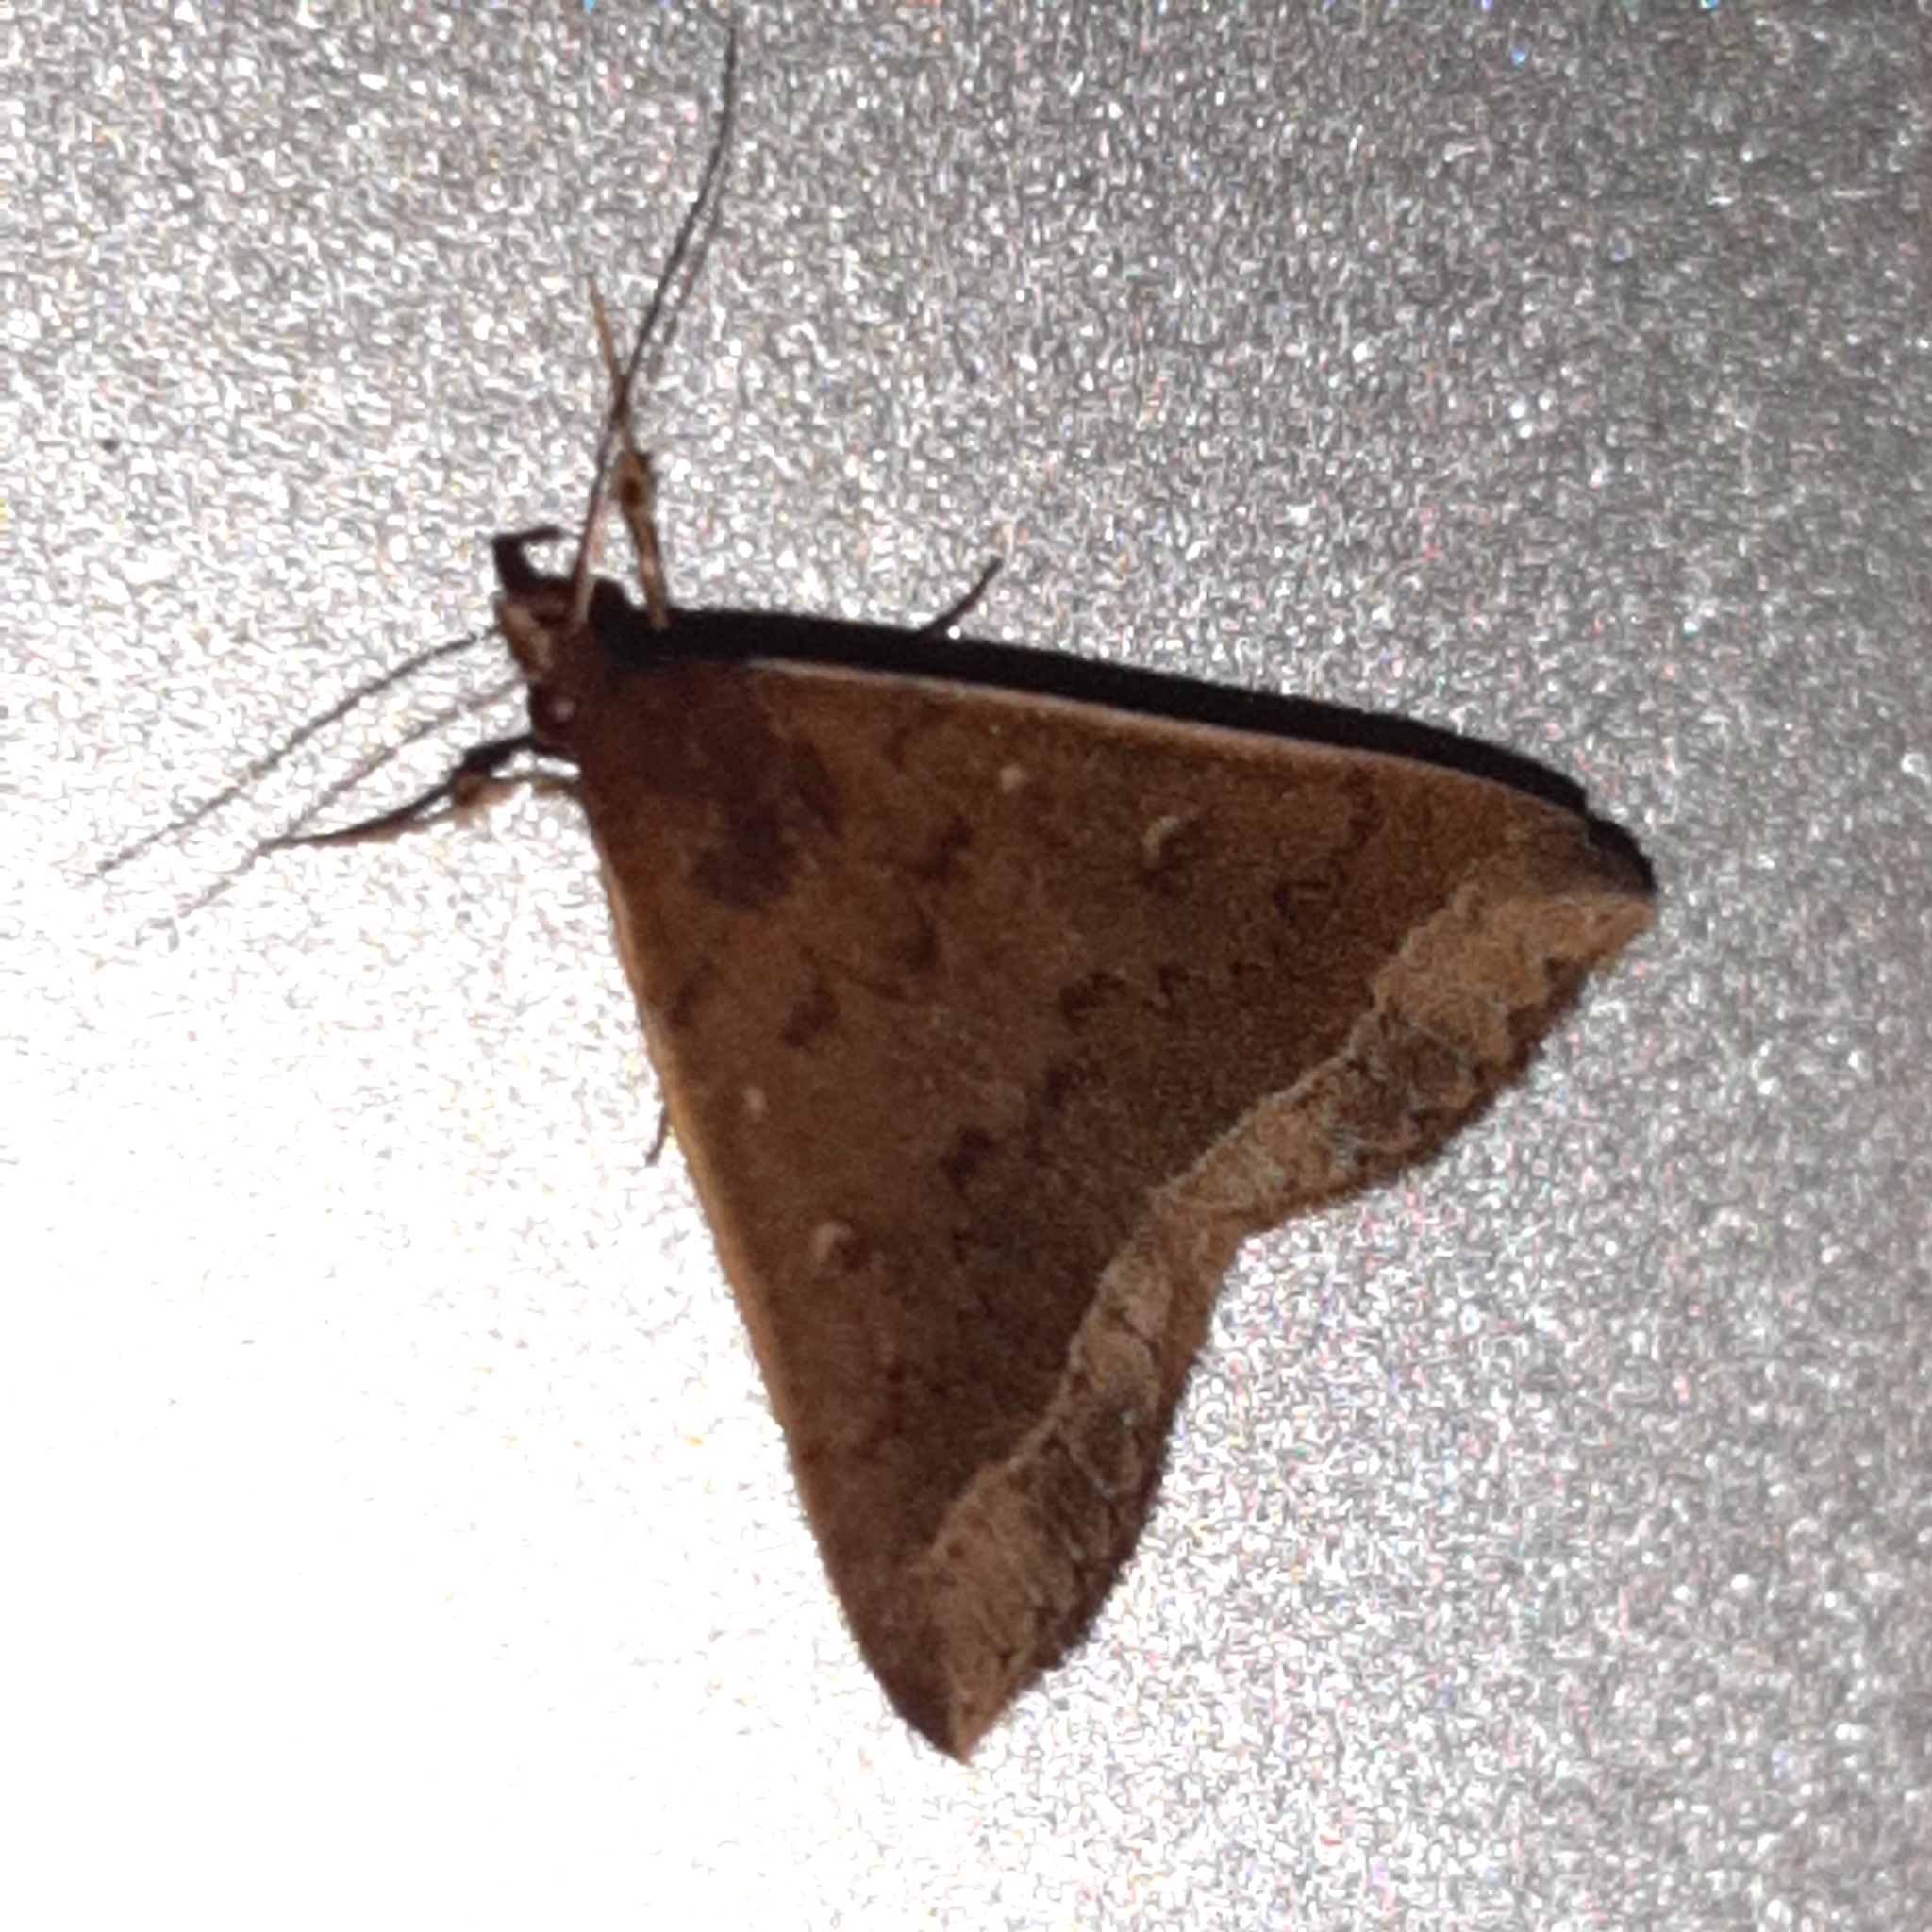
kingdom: Animalia
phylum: Arthropoda
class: Insecta
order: Lepidoptera
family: Erebidae
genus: Mamerthes
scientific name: Mamerthes orionalis
